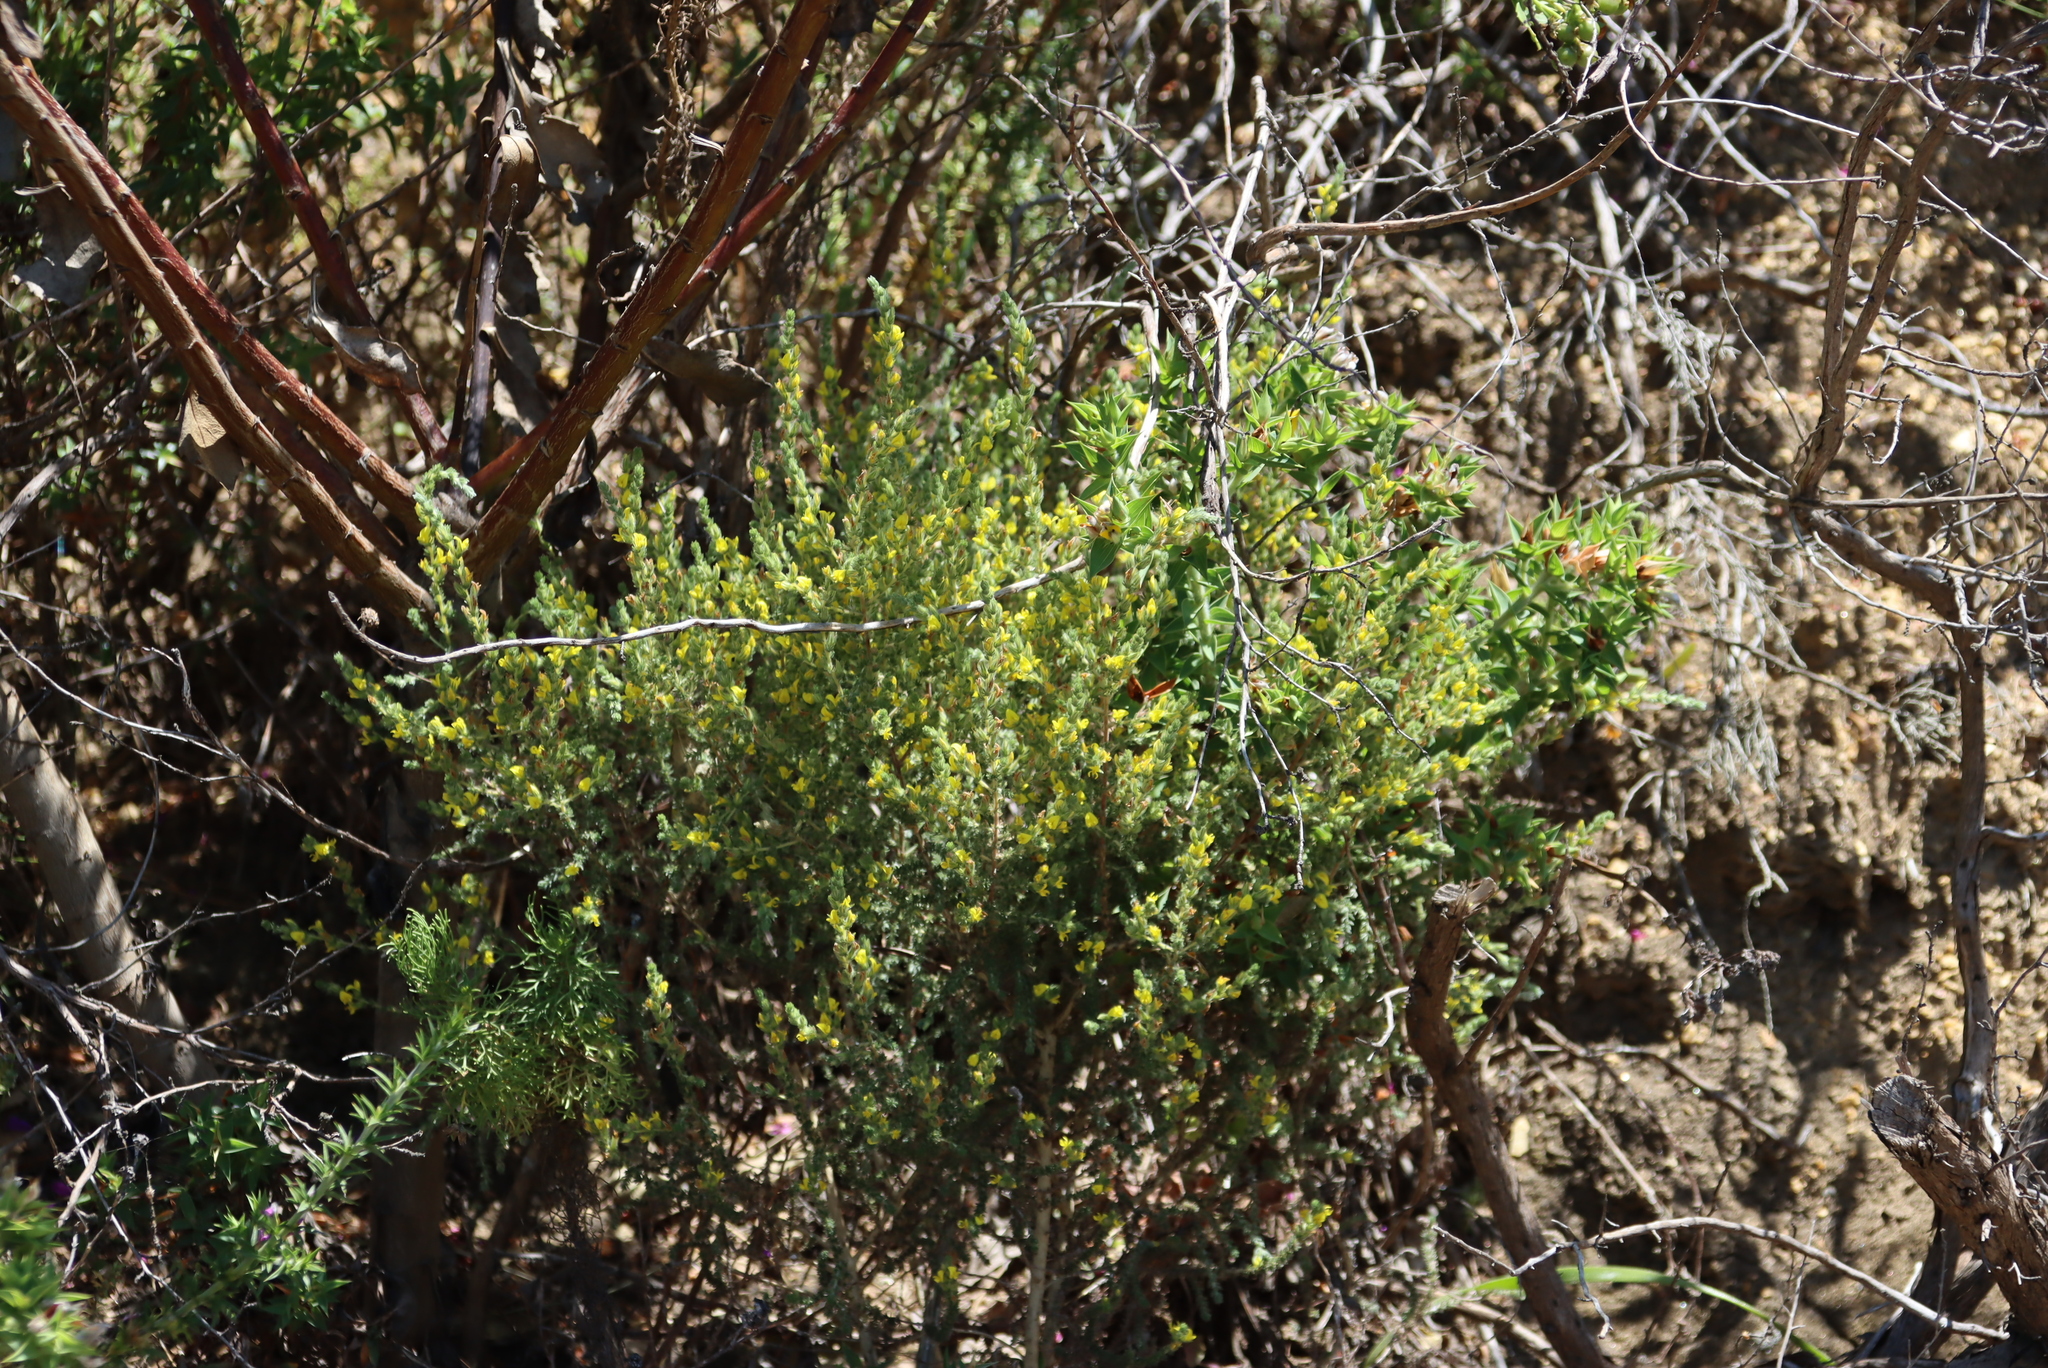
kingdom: Plantae
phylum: Tracheophyta
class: Magnoliopsida
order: Fabales
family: Fabaceae
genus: Aspalathus
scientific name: Aspalathus ericifolia
